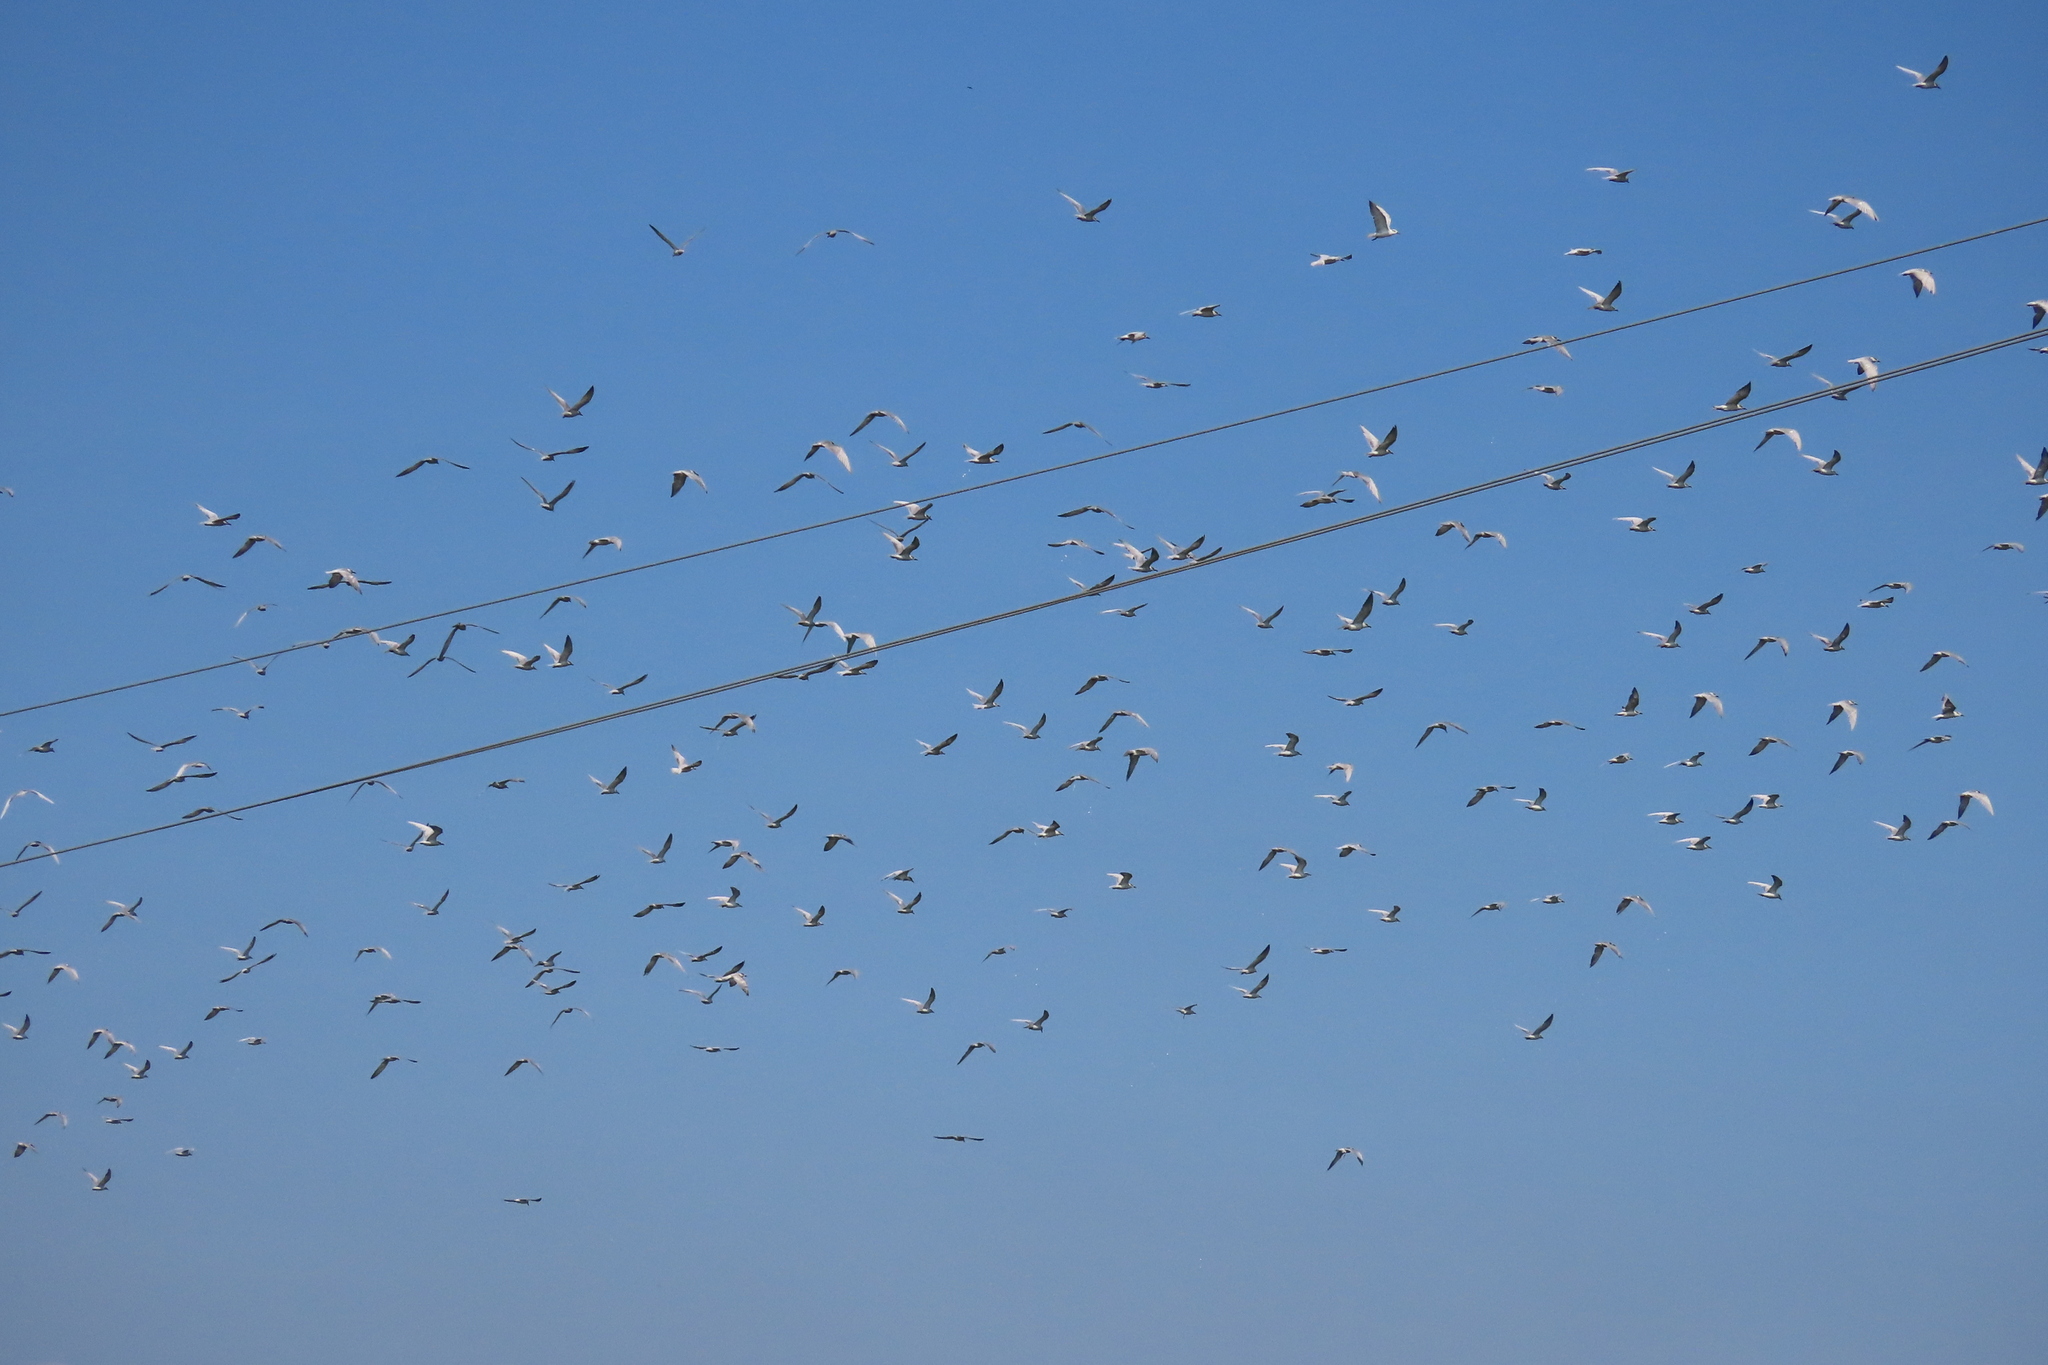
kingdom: Animalia
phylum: Chordata
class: Aves
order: Charadriiformes
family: Laridae
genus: Chlidonias
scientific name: Chlidonias hybrida
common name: Whiskered tern
